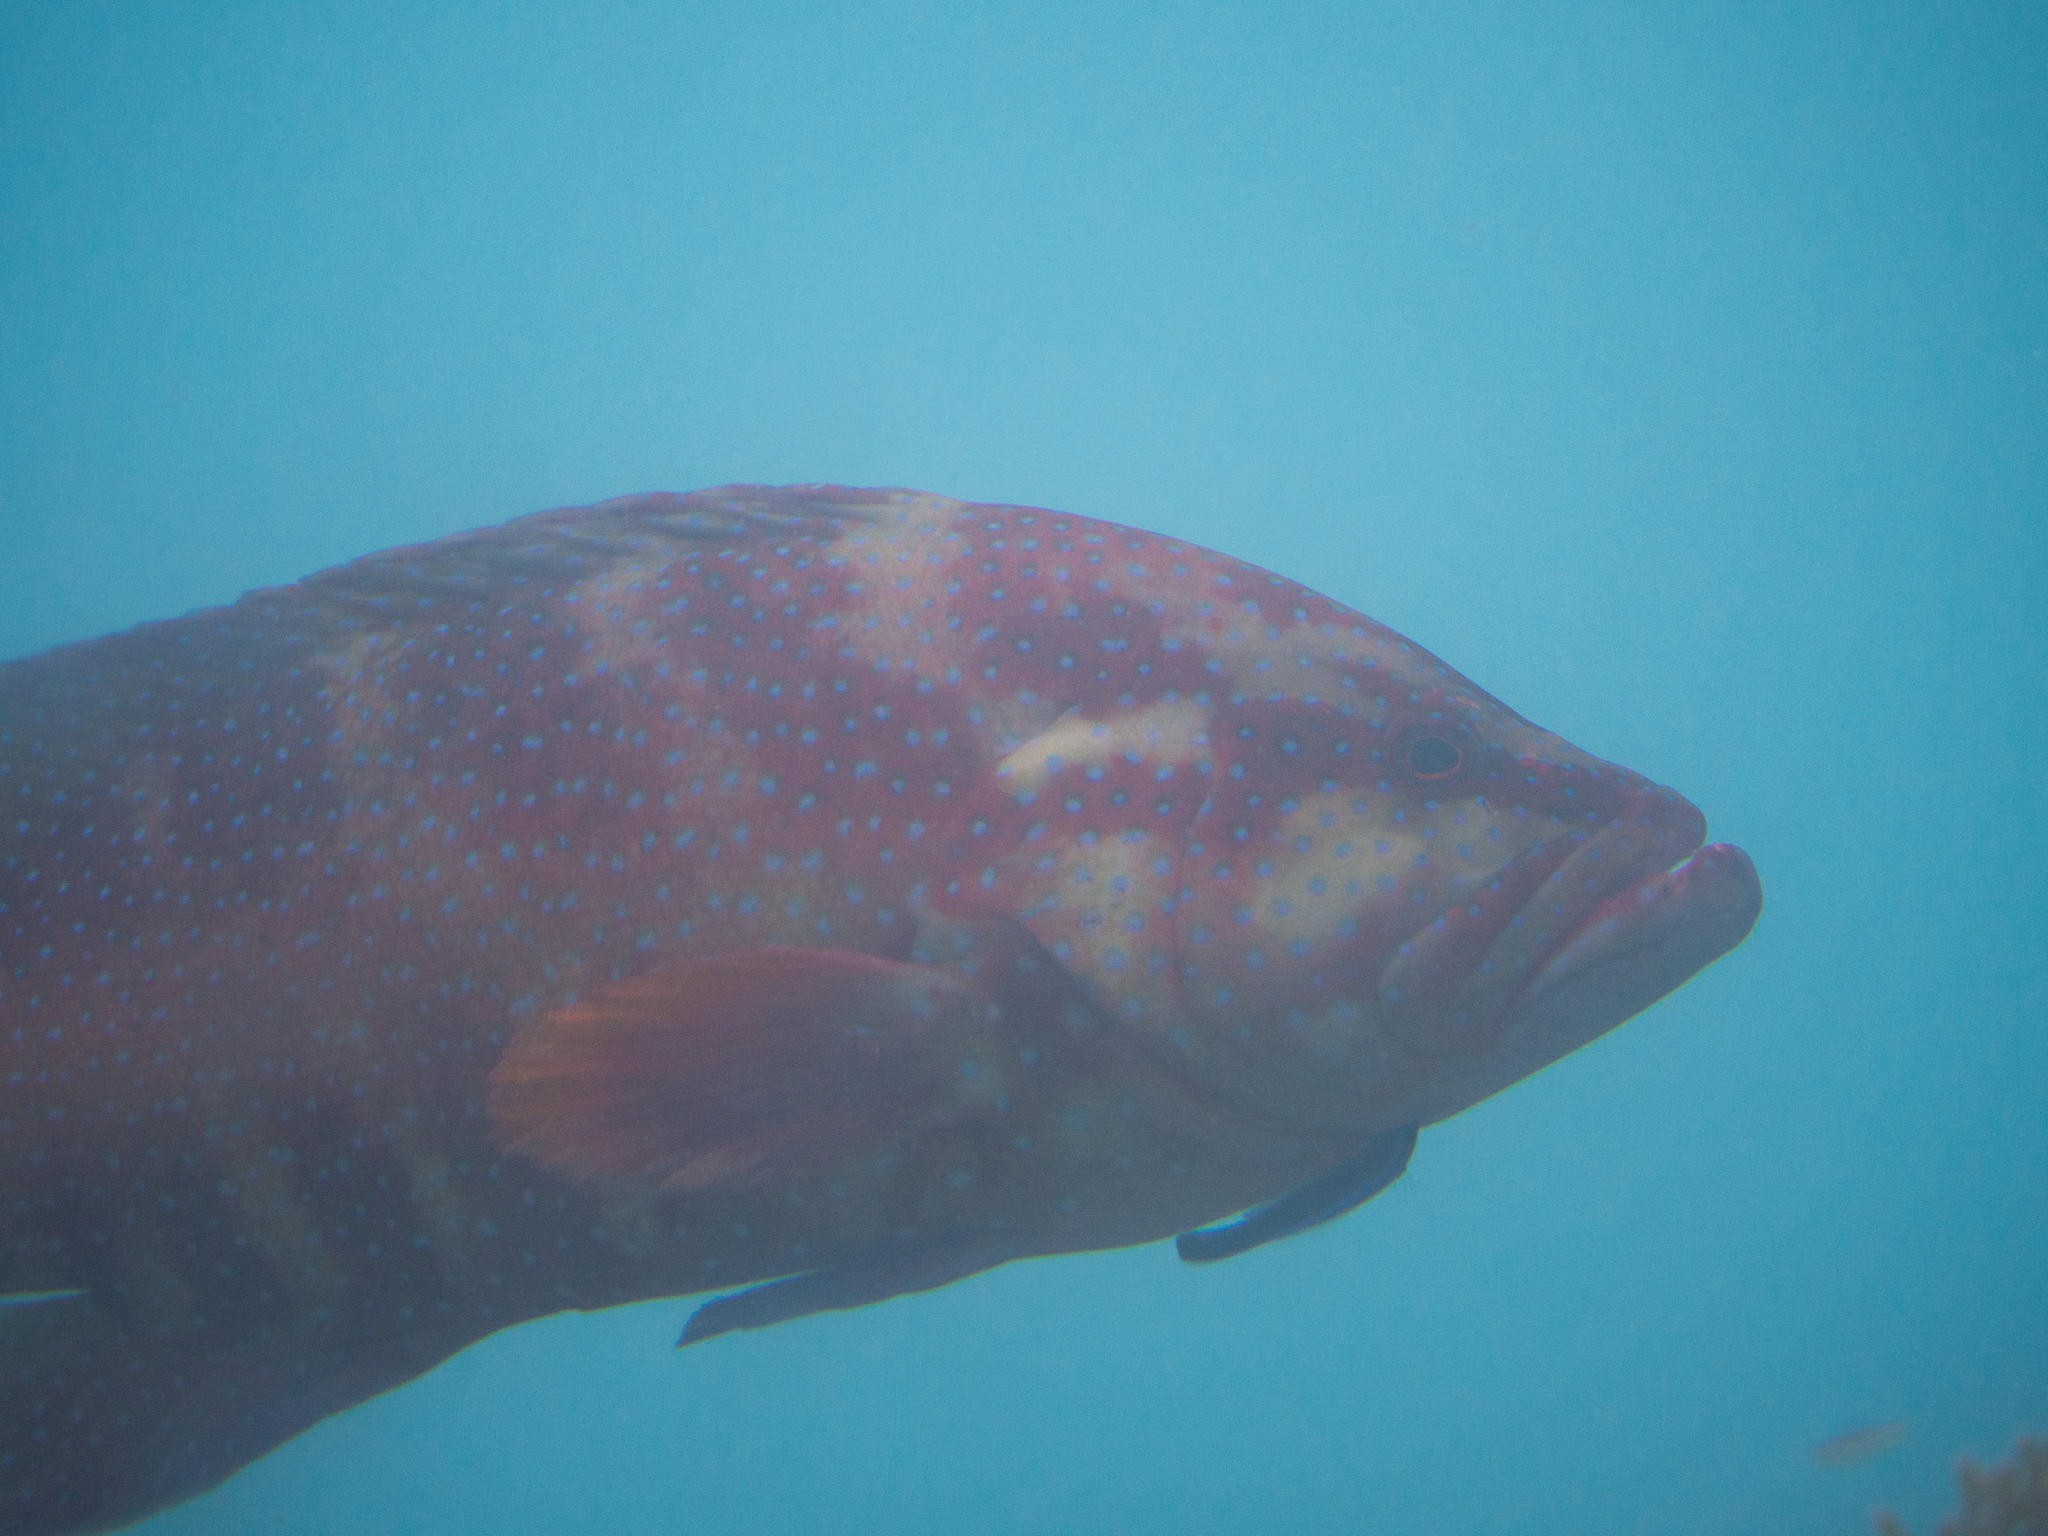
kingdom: Animalia
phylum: Chordata
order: Perciformes
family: Serranidae
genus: Cephalopholis
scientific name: Cephalopholis miniata
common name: Coral hind
